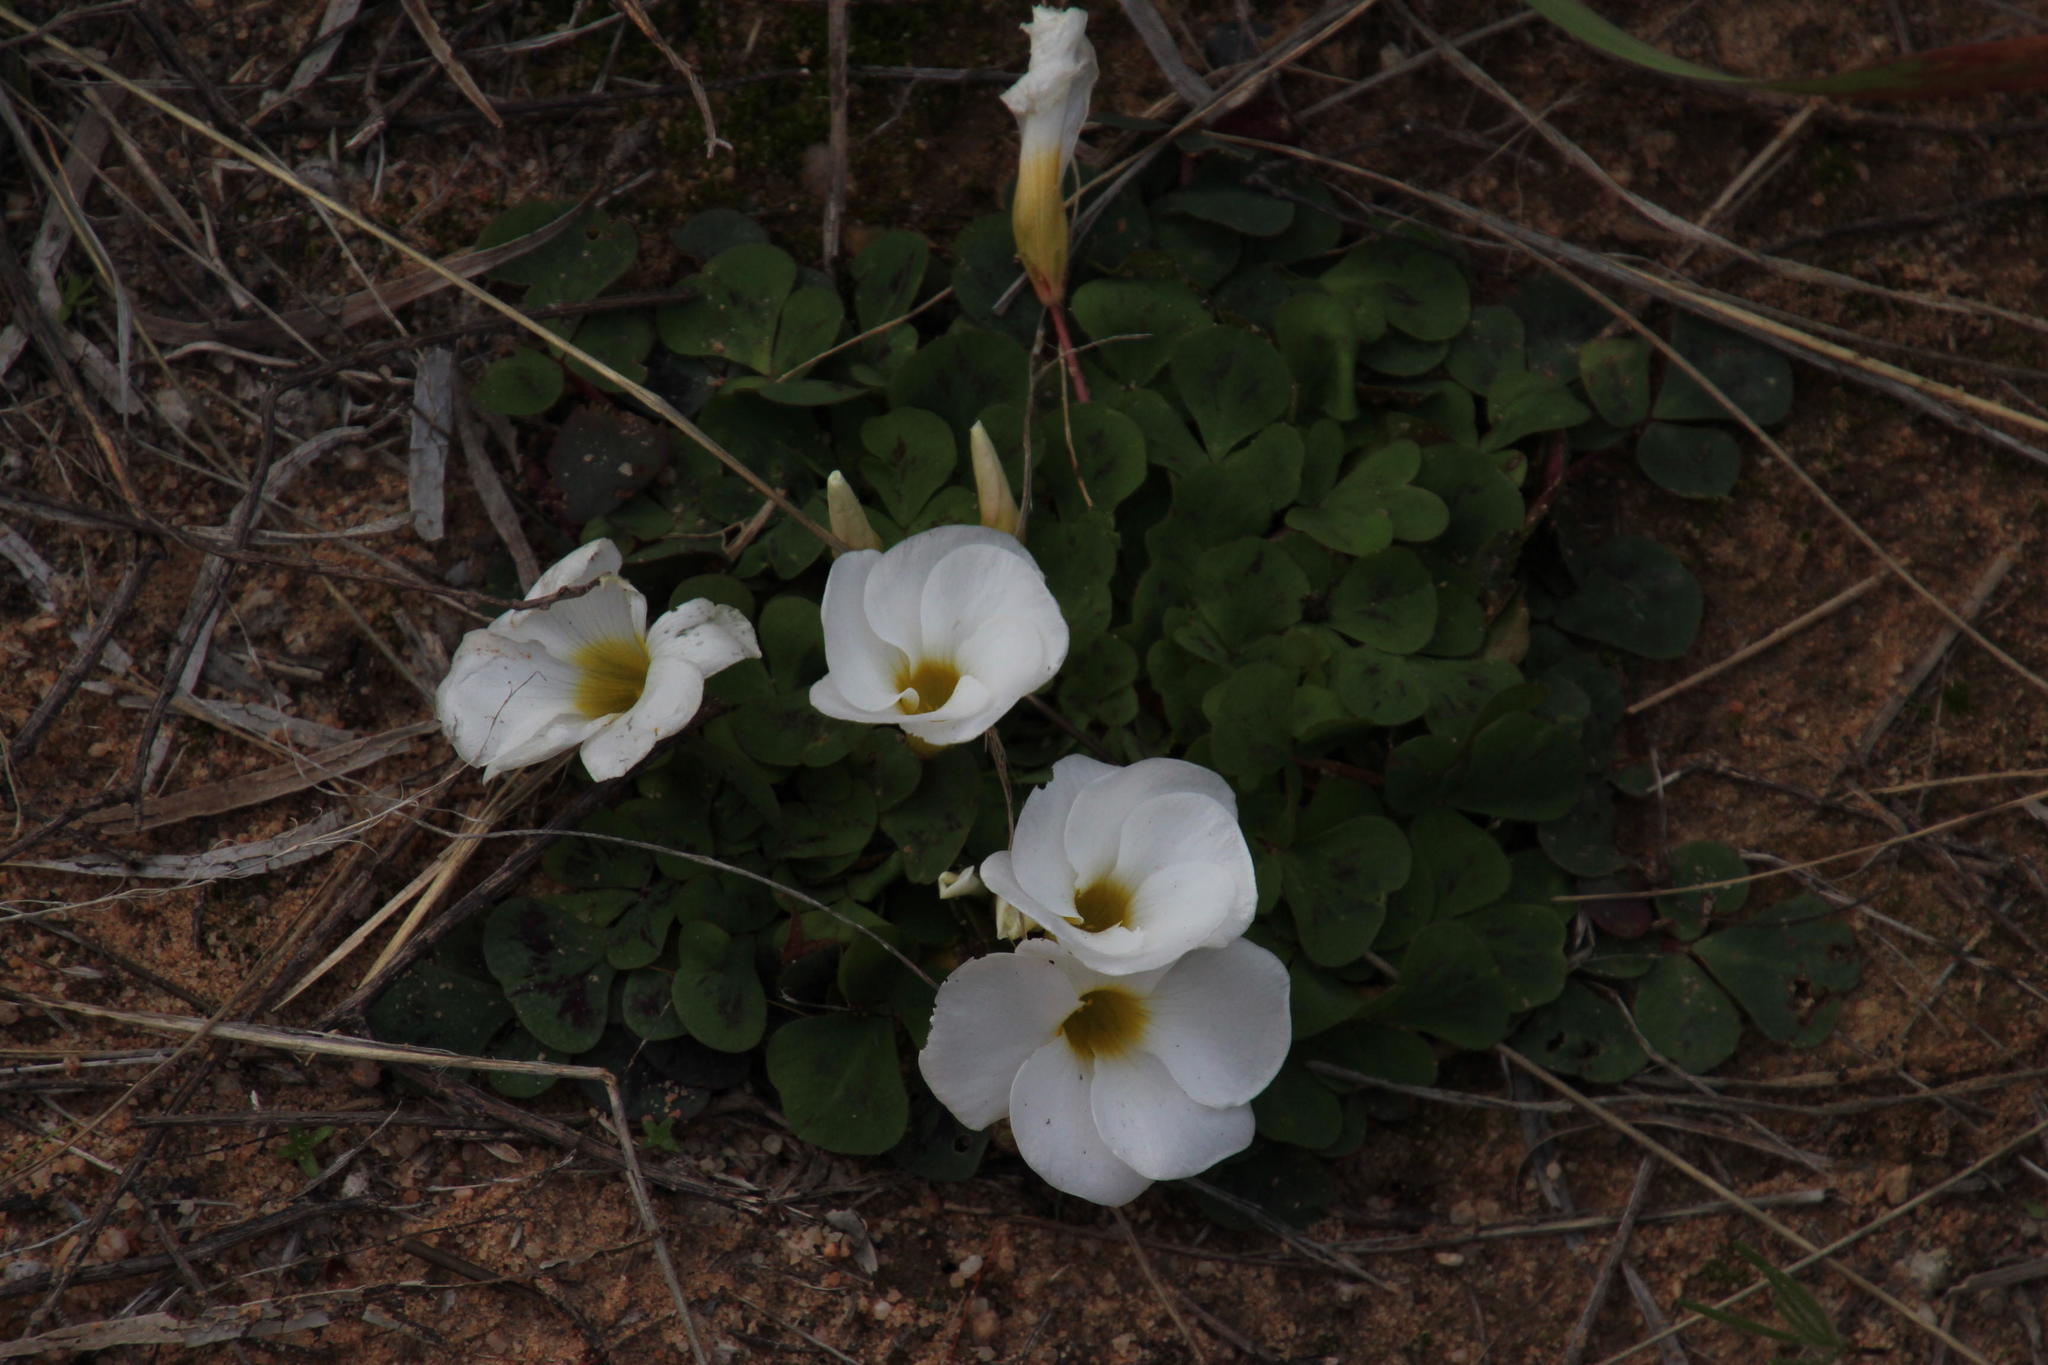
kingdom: Plantae
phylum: Tracheophyta
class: Magnoliopsida
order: Oxalidales
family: Oxalidaceae
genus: Oxalis
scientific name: Oxalis purpurea
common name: Purple woodsorrel
